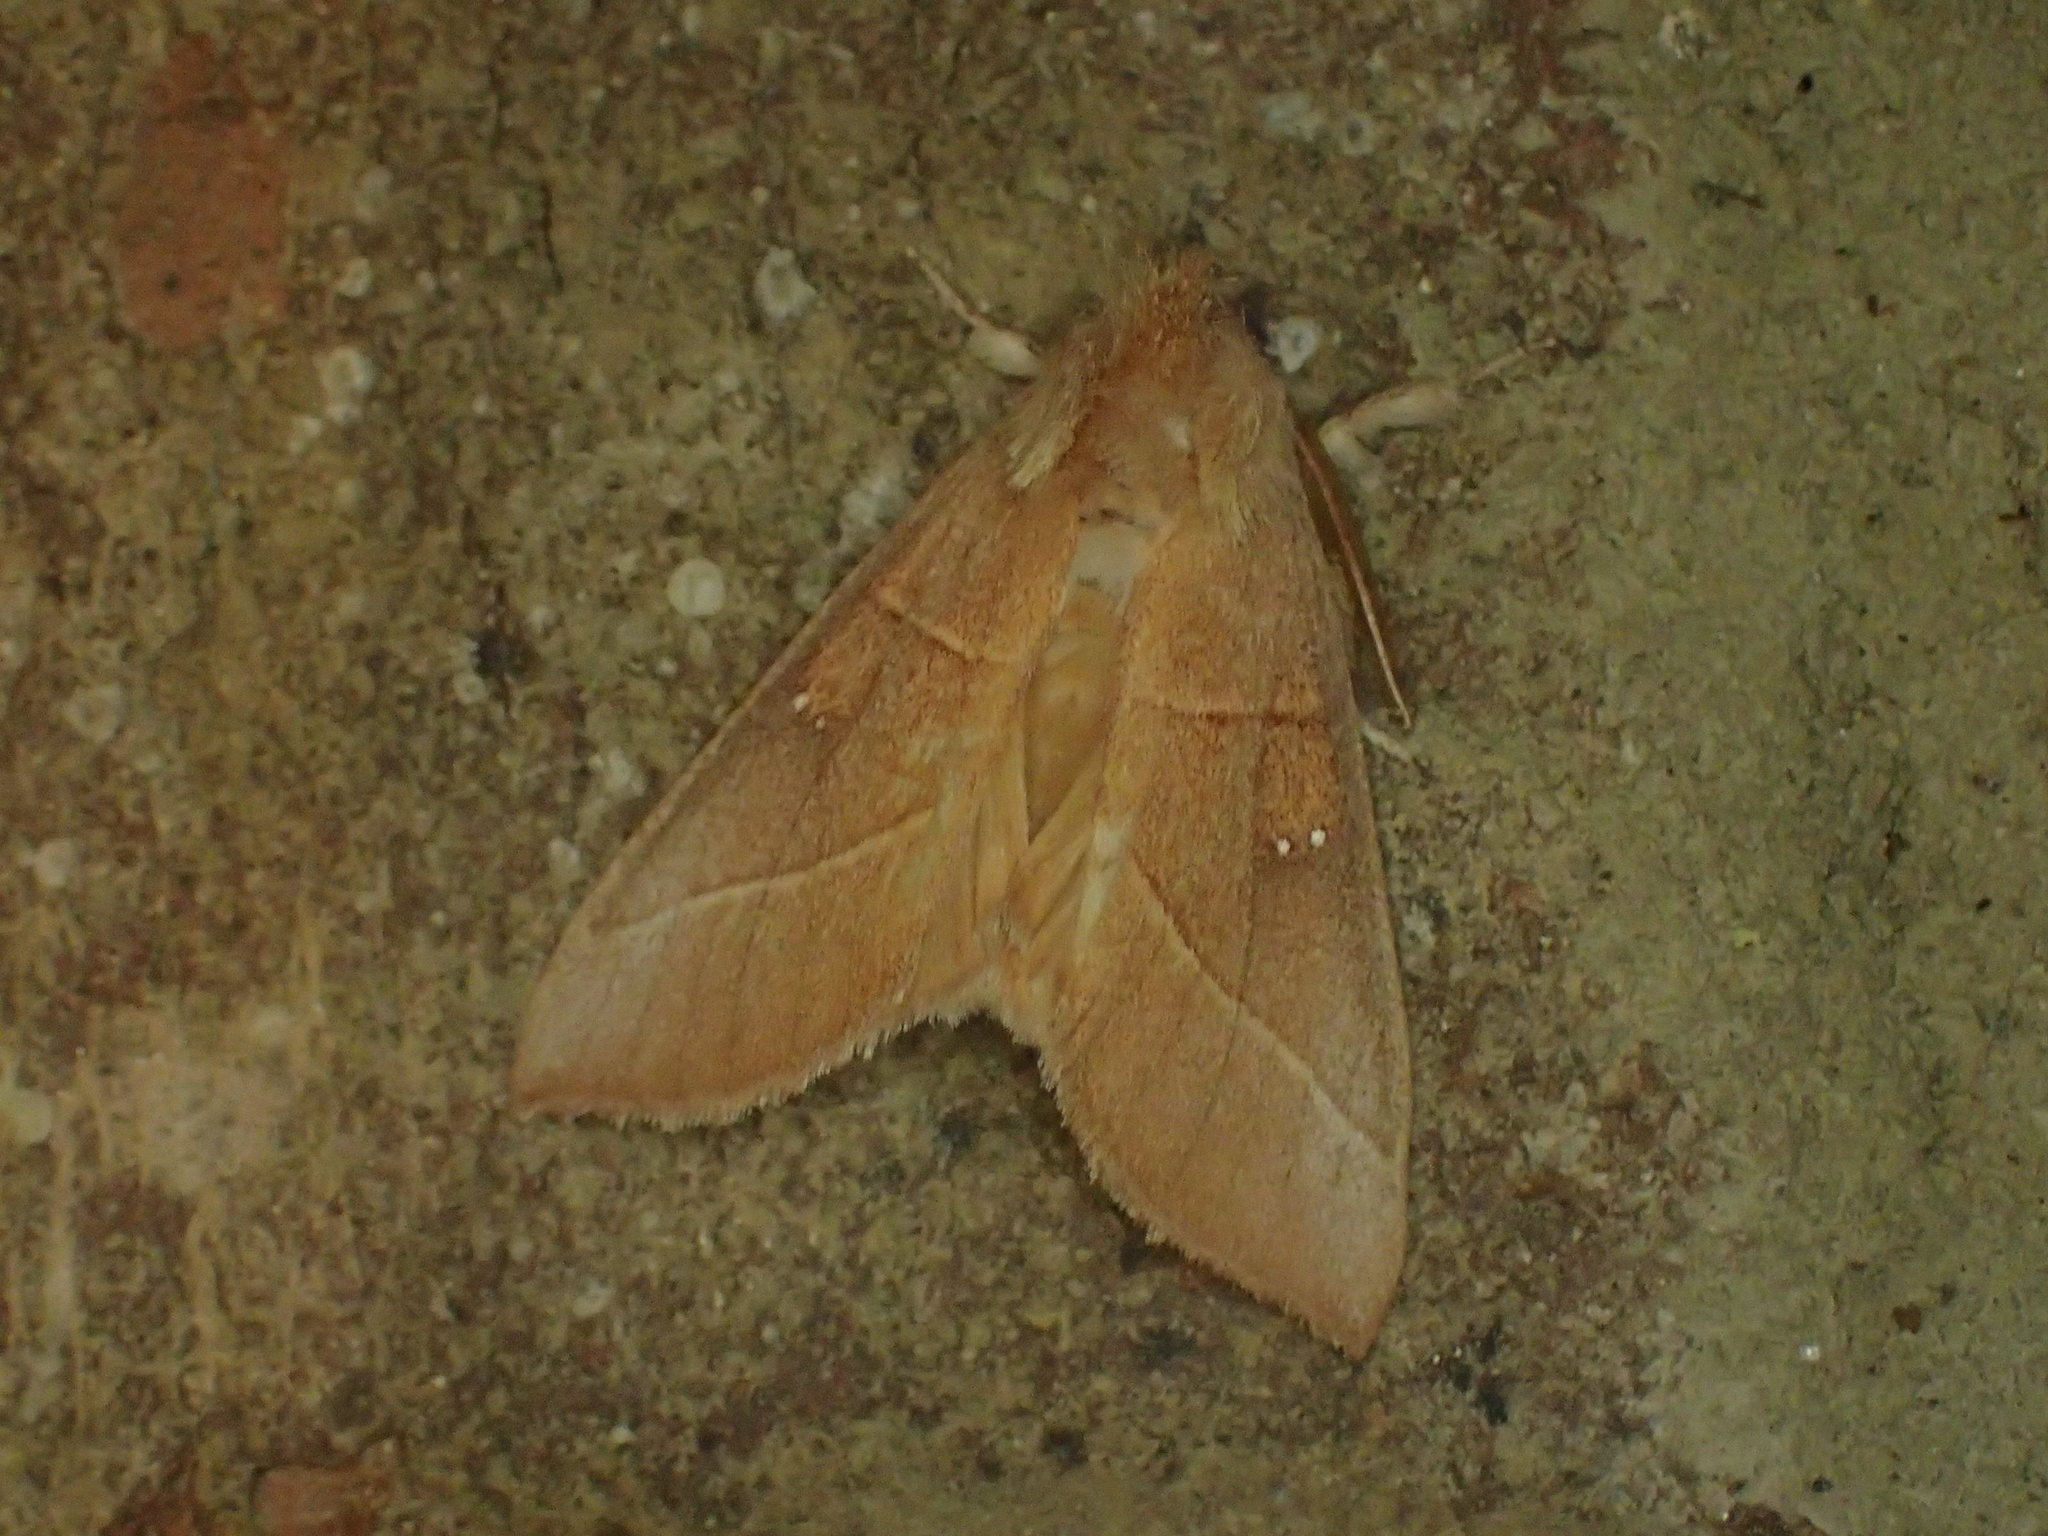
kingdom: Animalia
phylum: Arthropoda
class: Insecta
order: Lepidoptera
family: Notodontidae
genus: Nadata
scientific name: Nadata gibbosa
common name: White-dotted prominent
